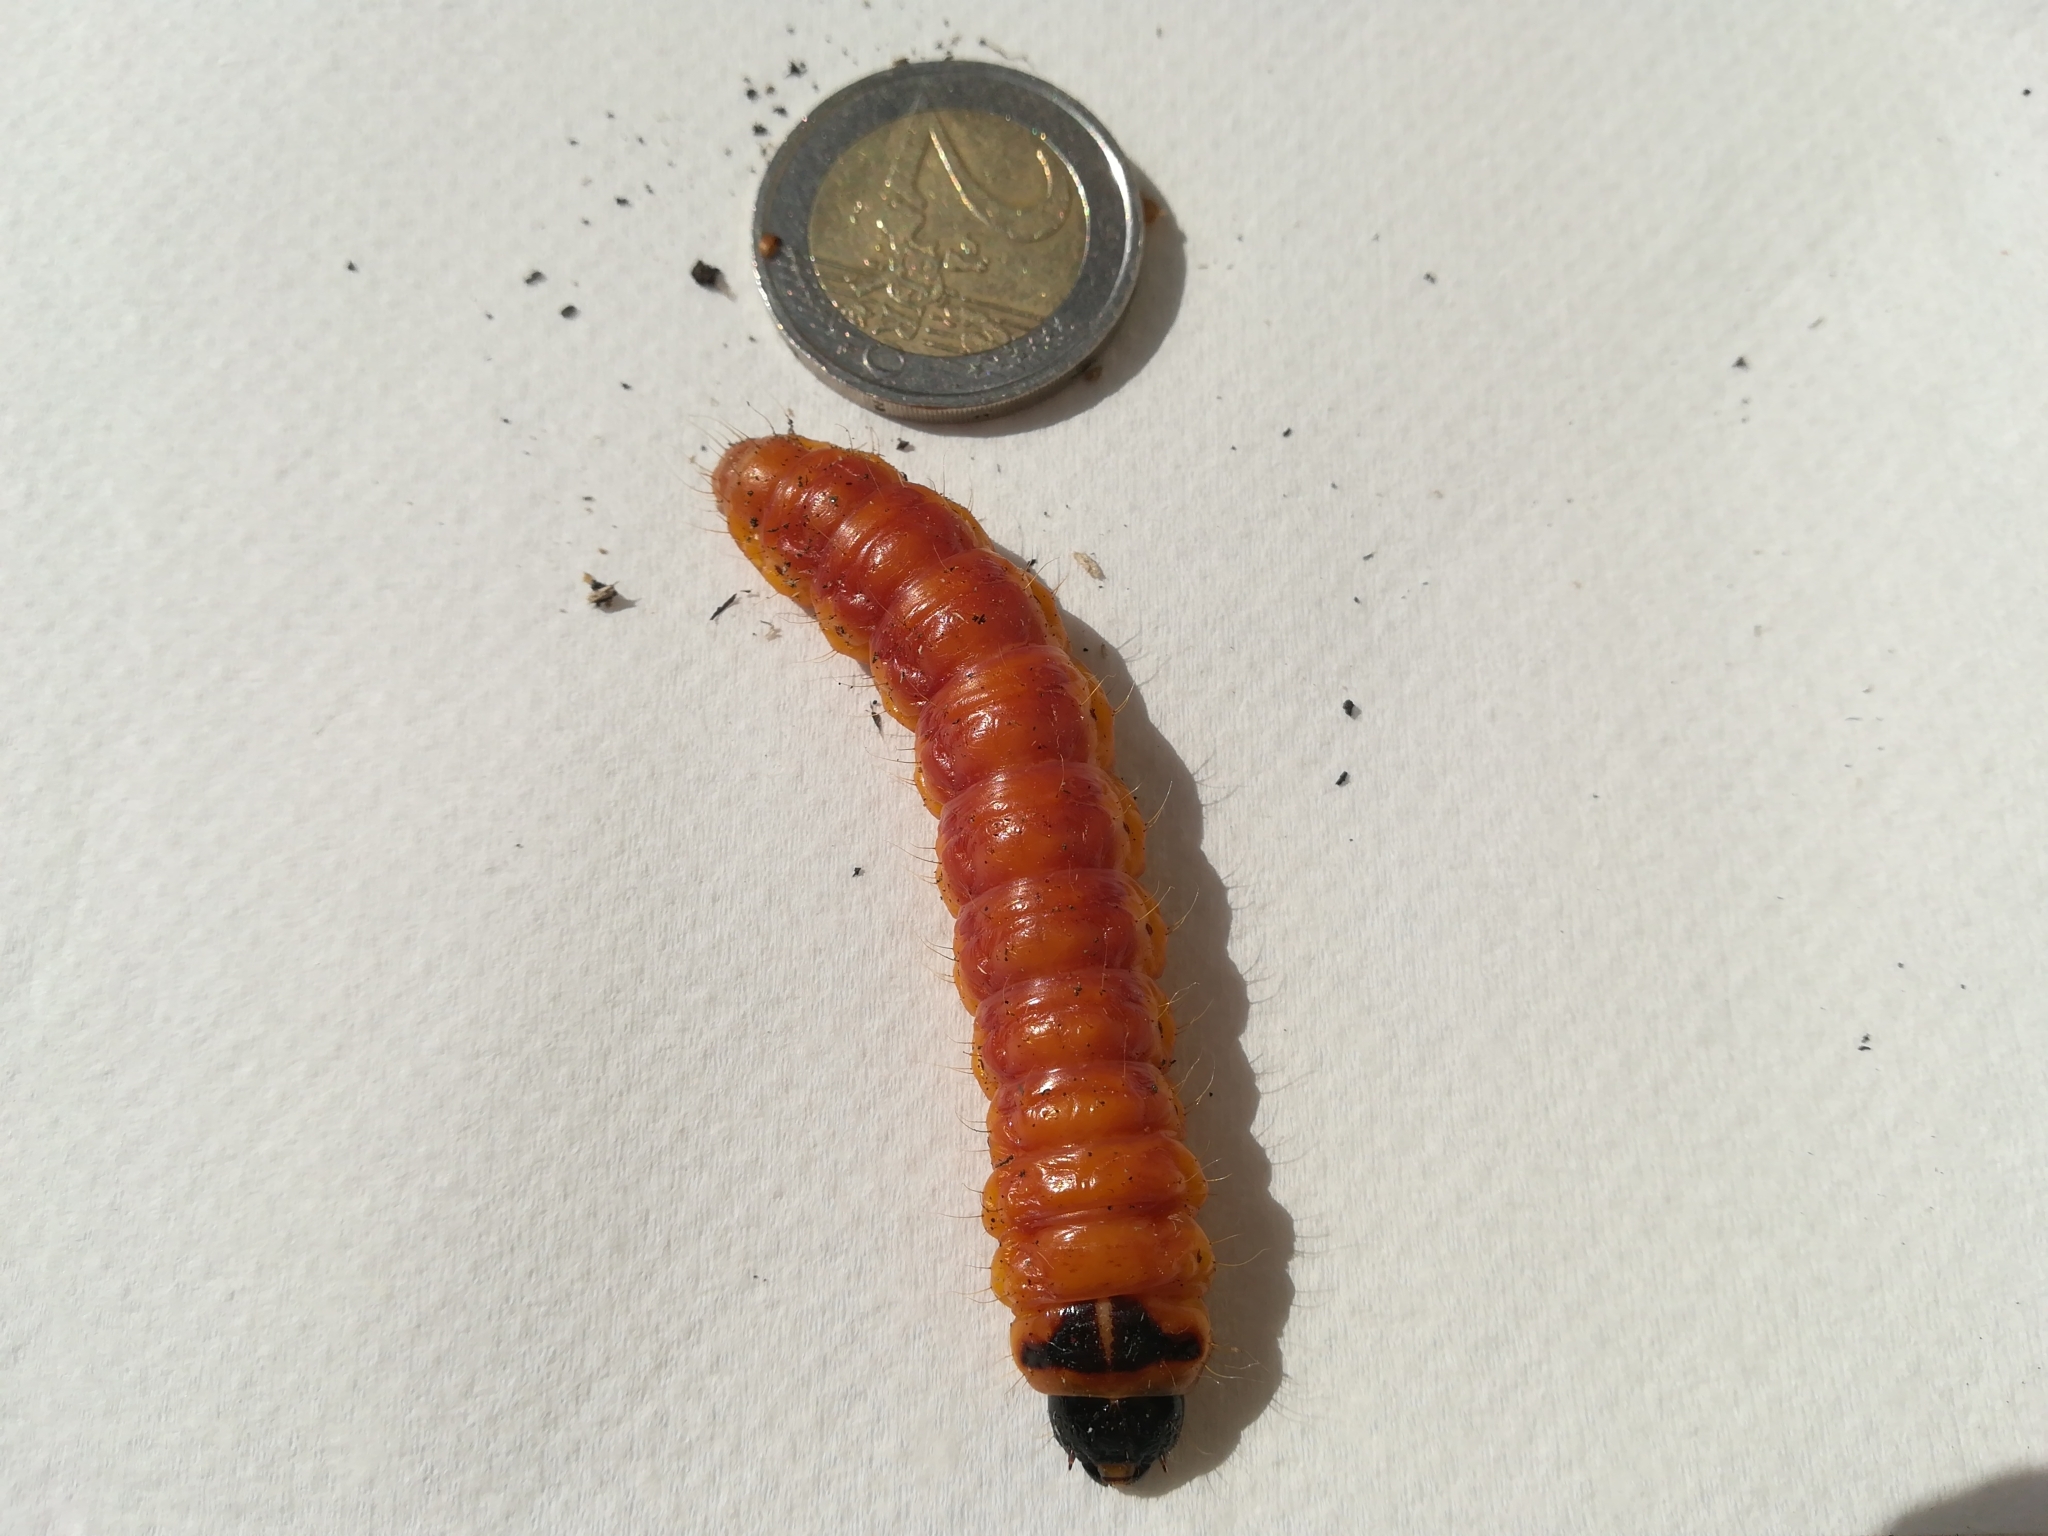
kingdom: Animalia
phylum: Arthropoda
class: Insecta
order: Lepidoptera
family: Cossidae
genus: Cossus
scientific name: Cossus cossus
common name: Goat moth
